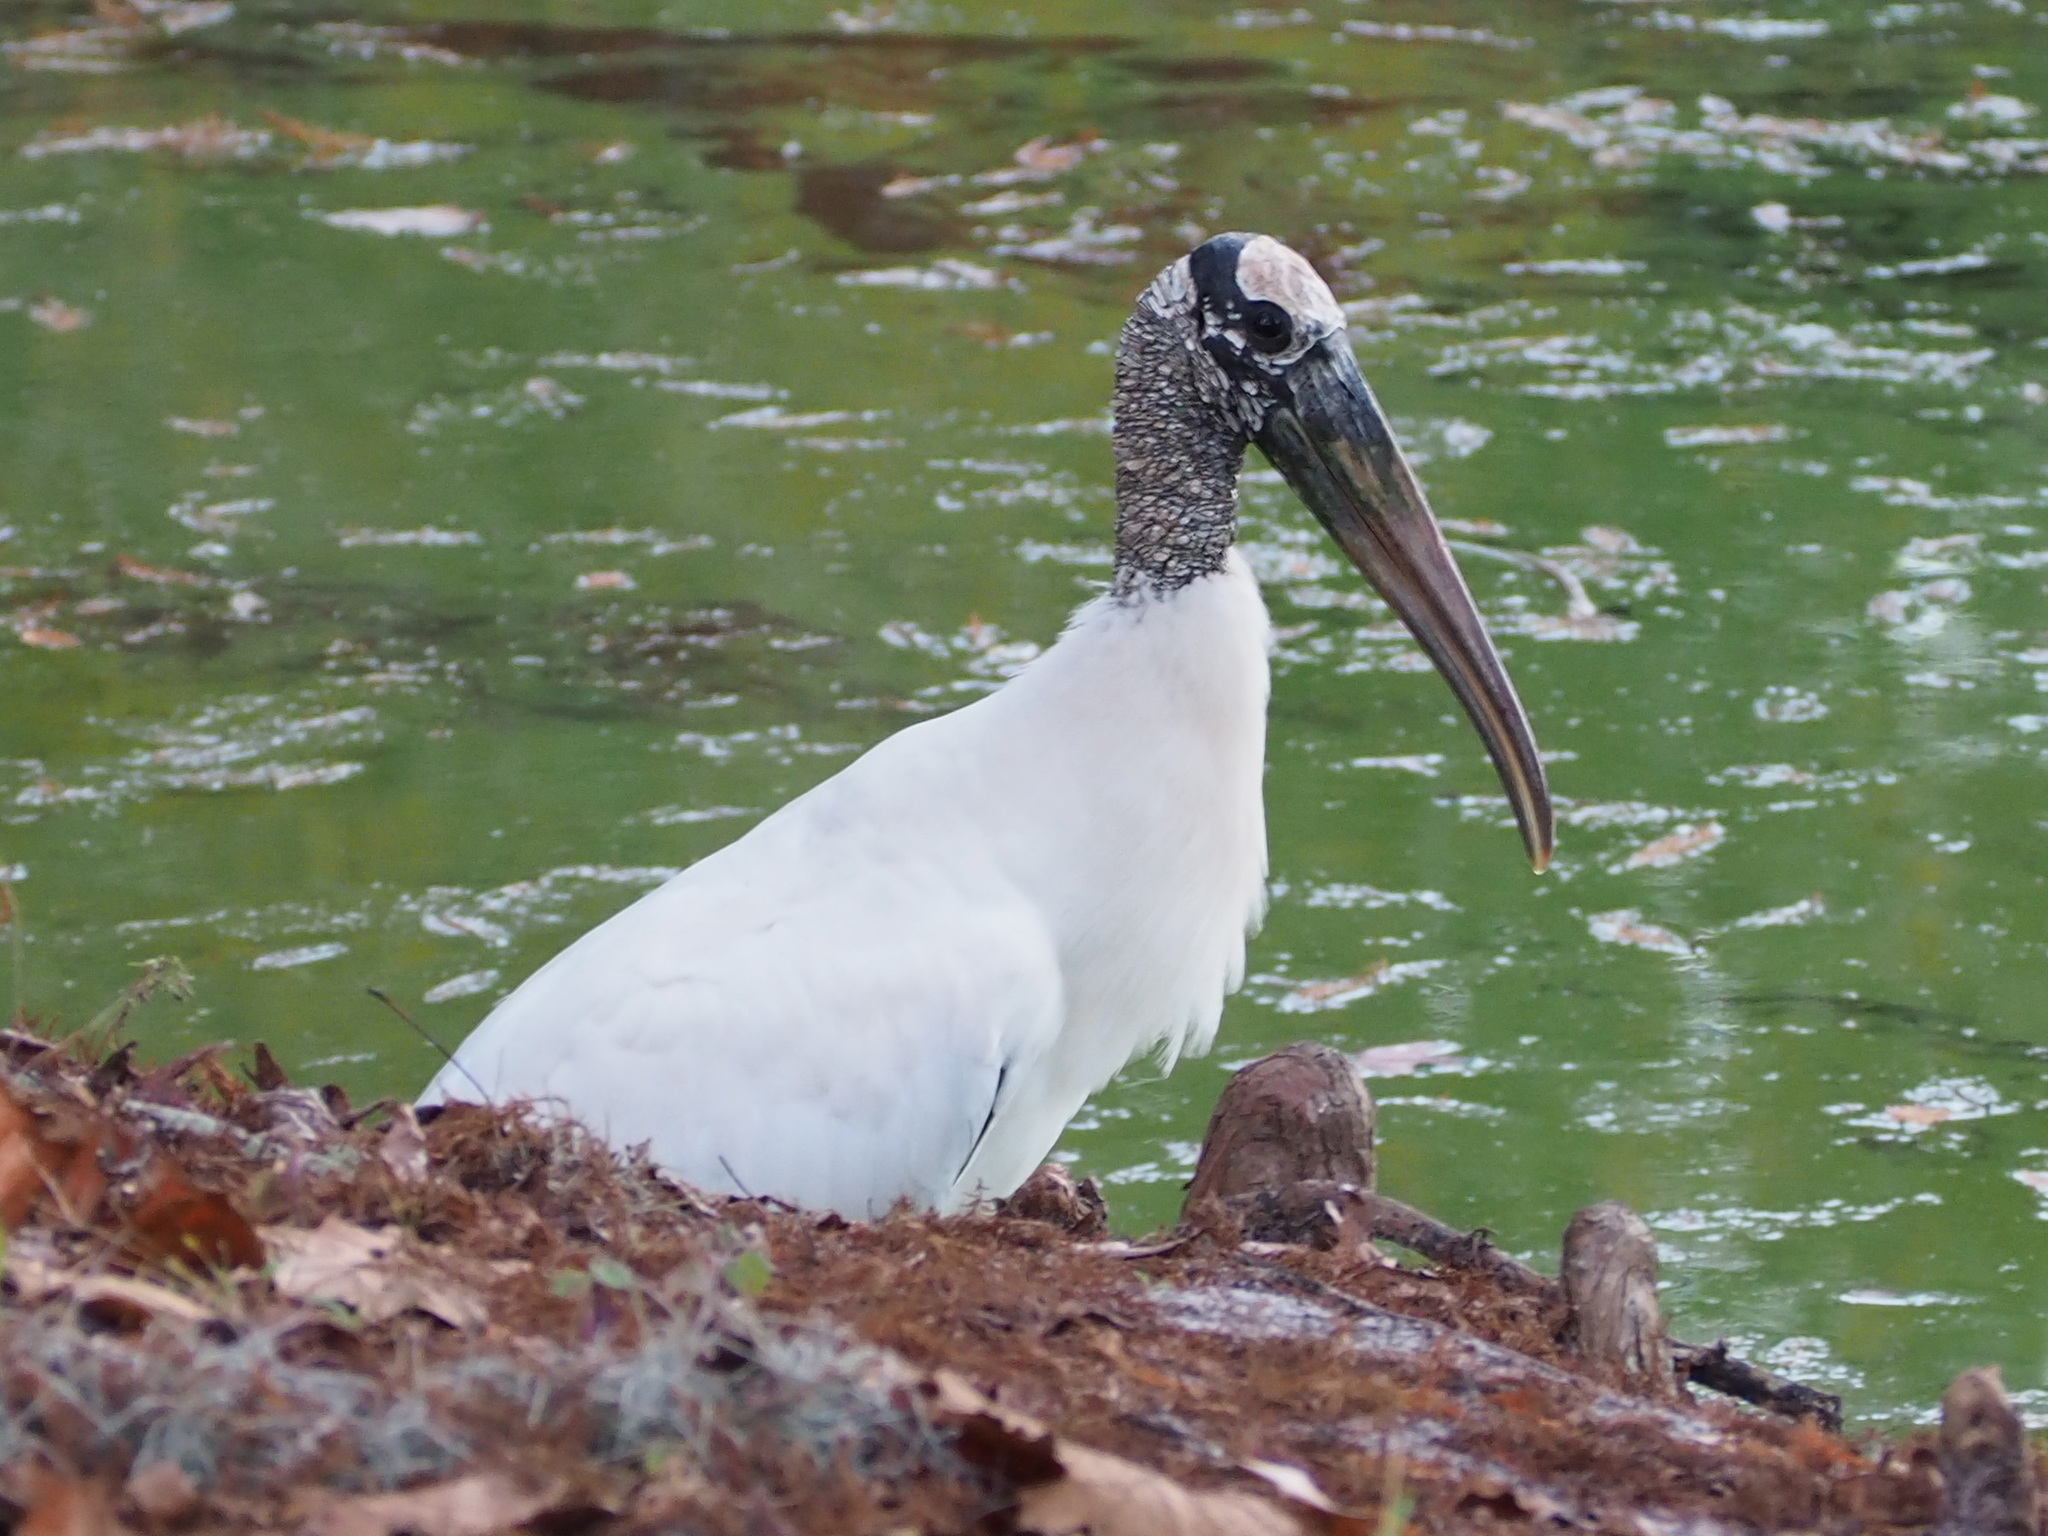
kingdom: Animalia
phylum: Chordata
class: Aves
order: Ciconiiformes
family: Ciconiidae
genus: Mycteria
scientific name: Mycteria americana
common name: Wood stork
